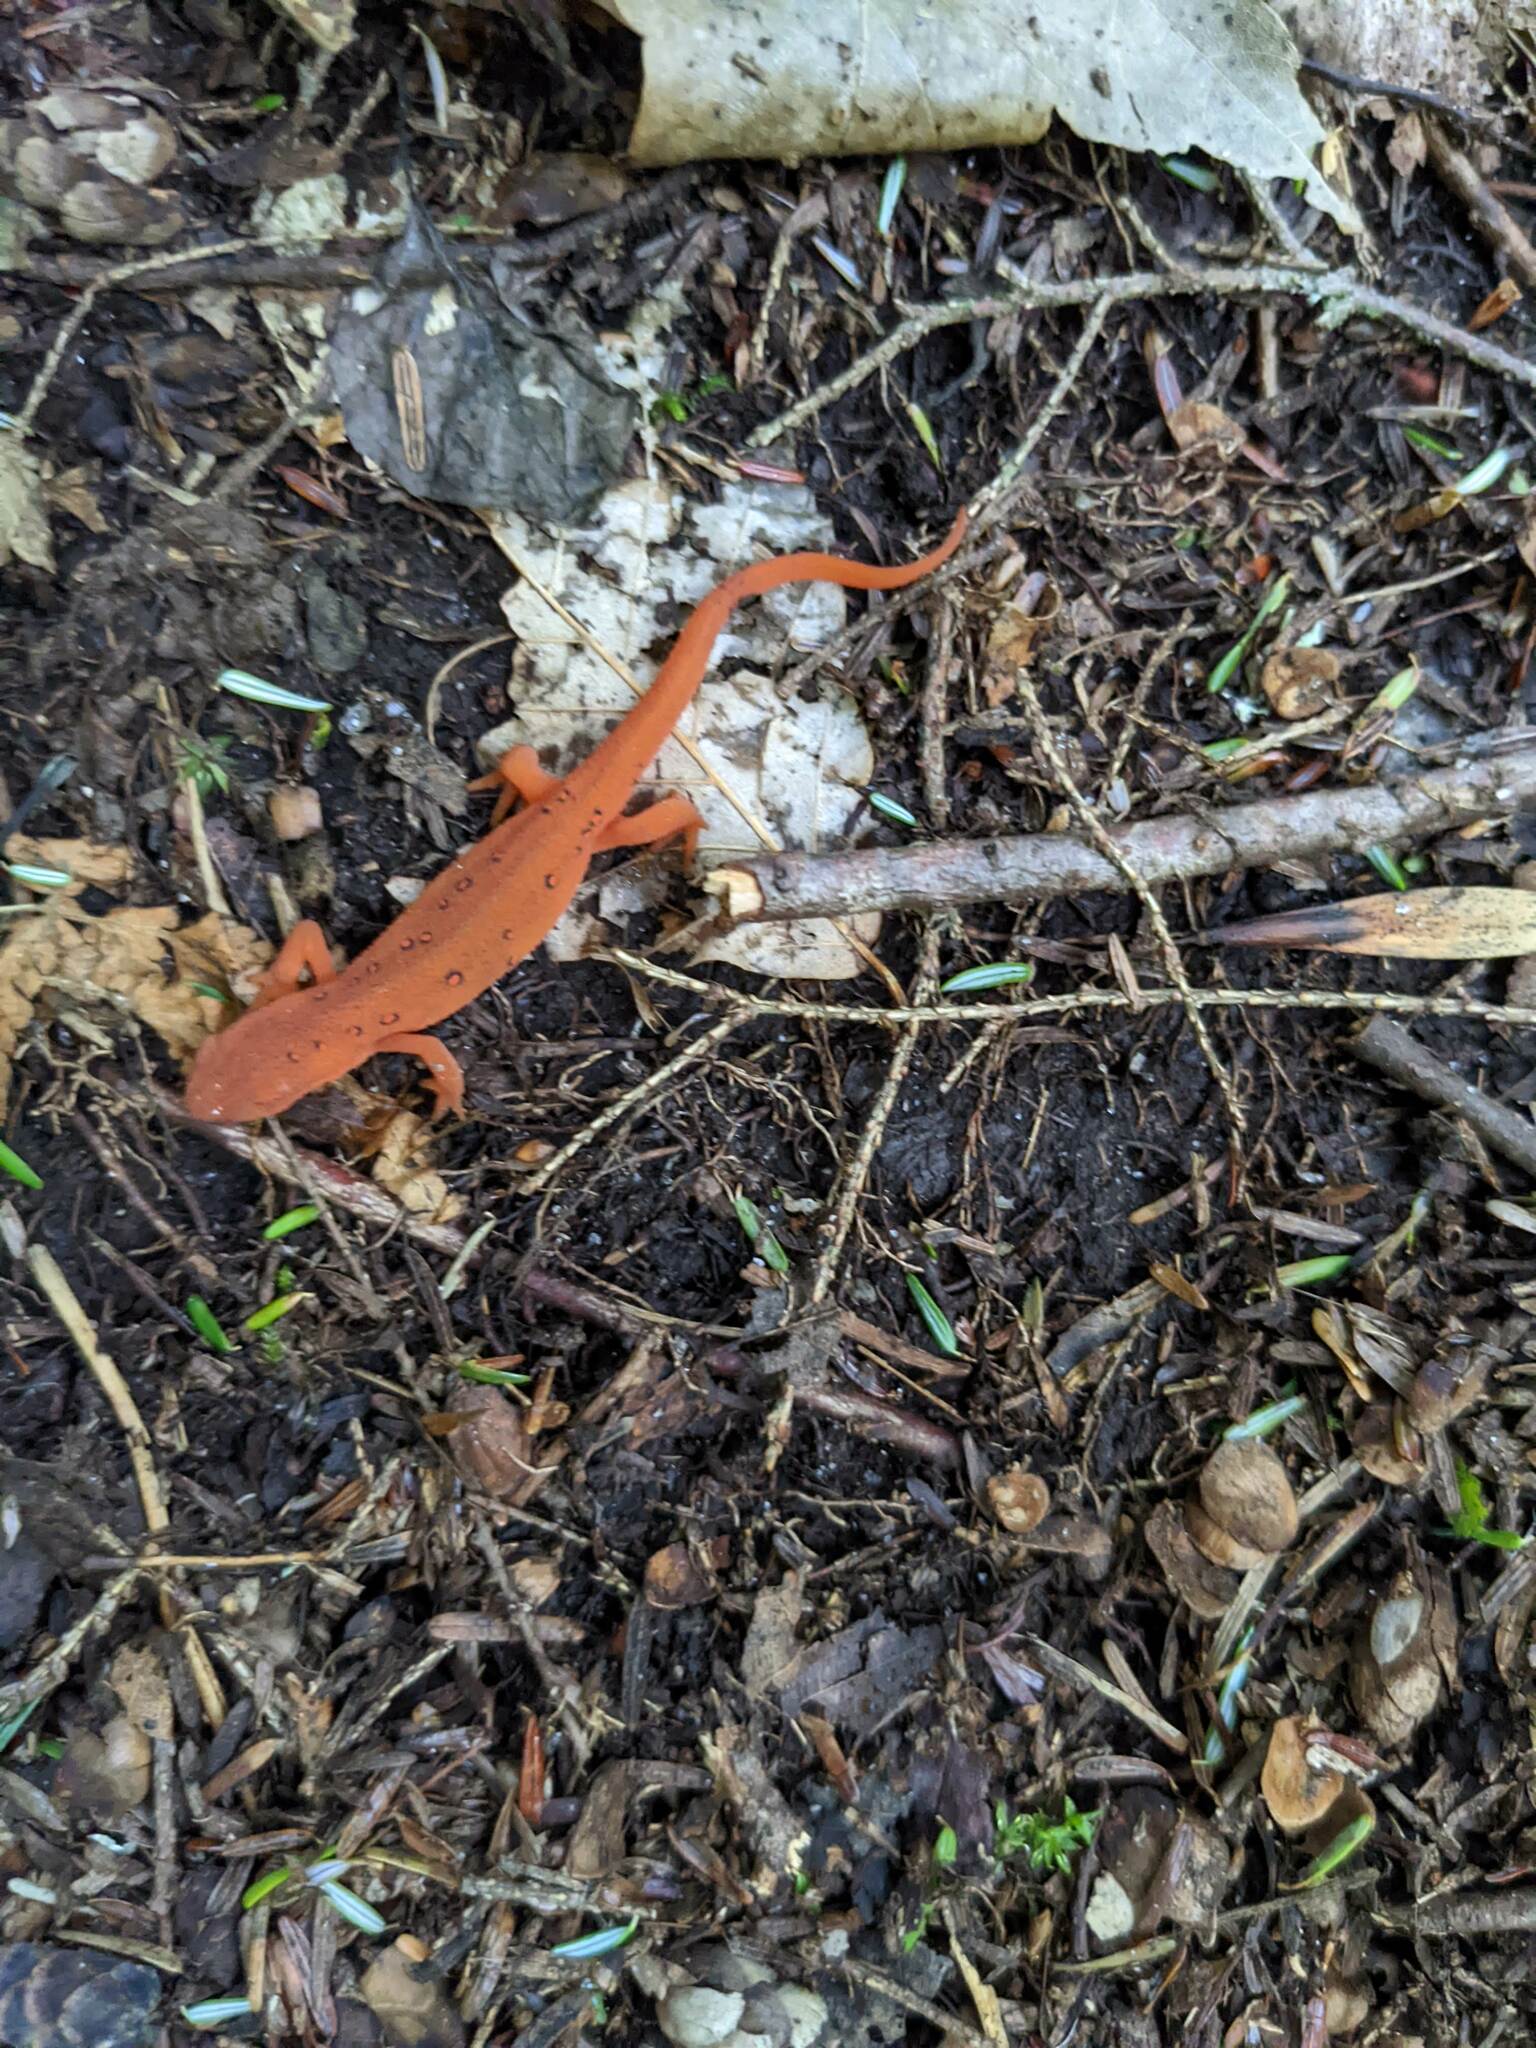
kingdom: Animalia
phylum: Chordata
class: Amphibia
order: Caudata
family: Salamandridae
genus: Notophthalmus
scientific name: Notophthalmus viridescens
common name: Eastern newt
